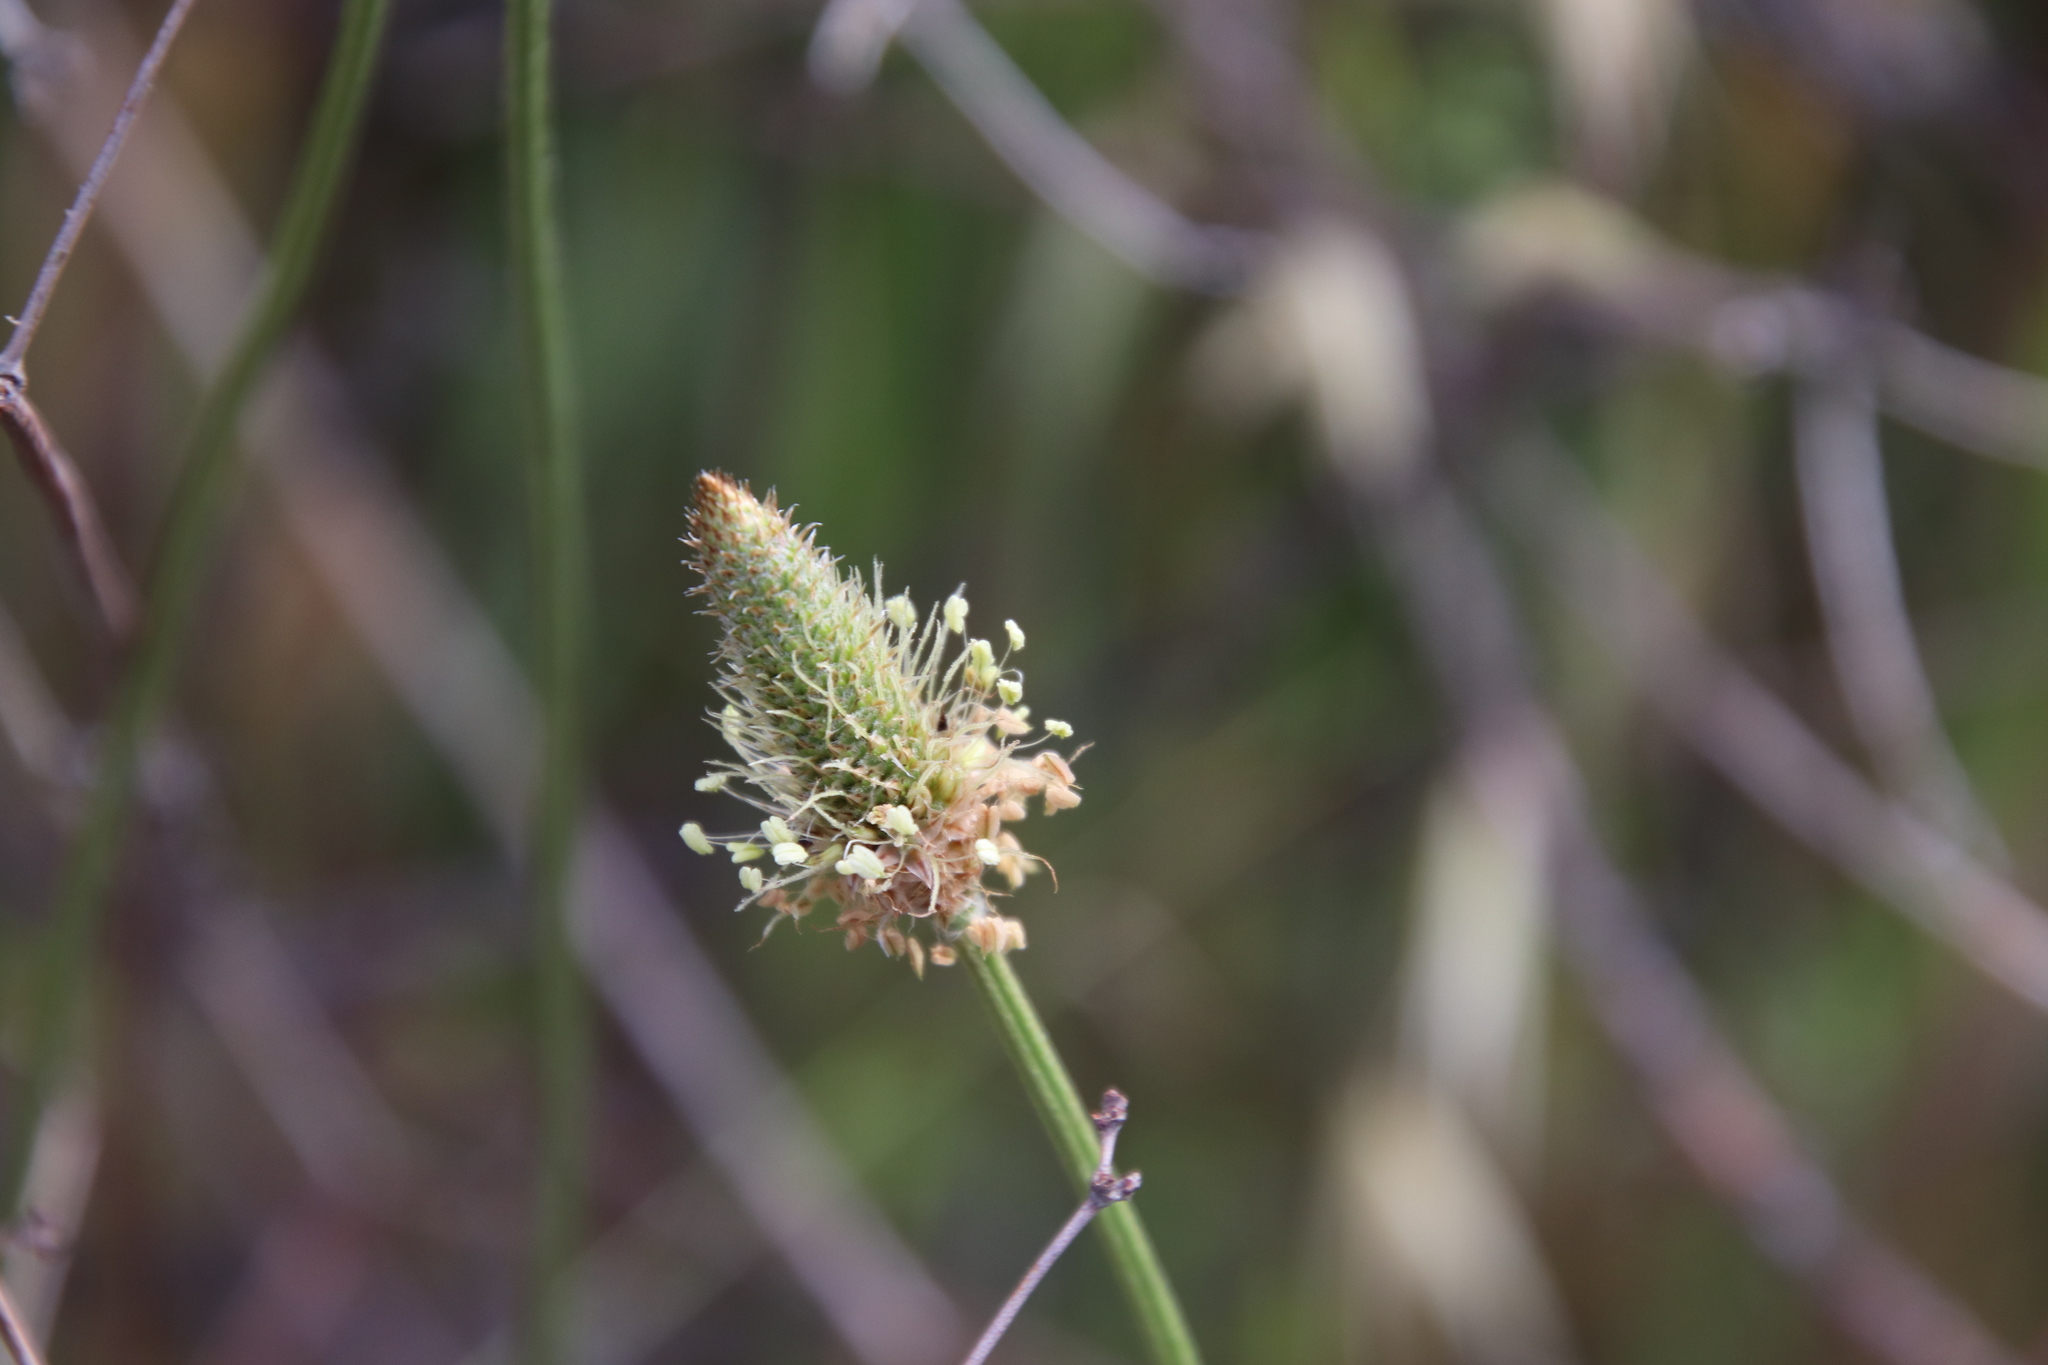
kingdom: Plantae
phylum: Tracheophyta
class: Magnoliopsida
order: Lamiales
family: Plantaginaceae
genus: Plantago
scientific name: Plantago lanceolata
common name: Ribwort plantain
